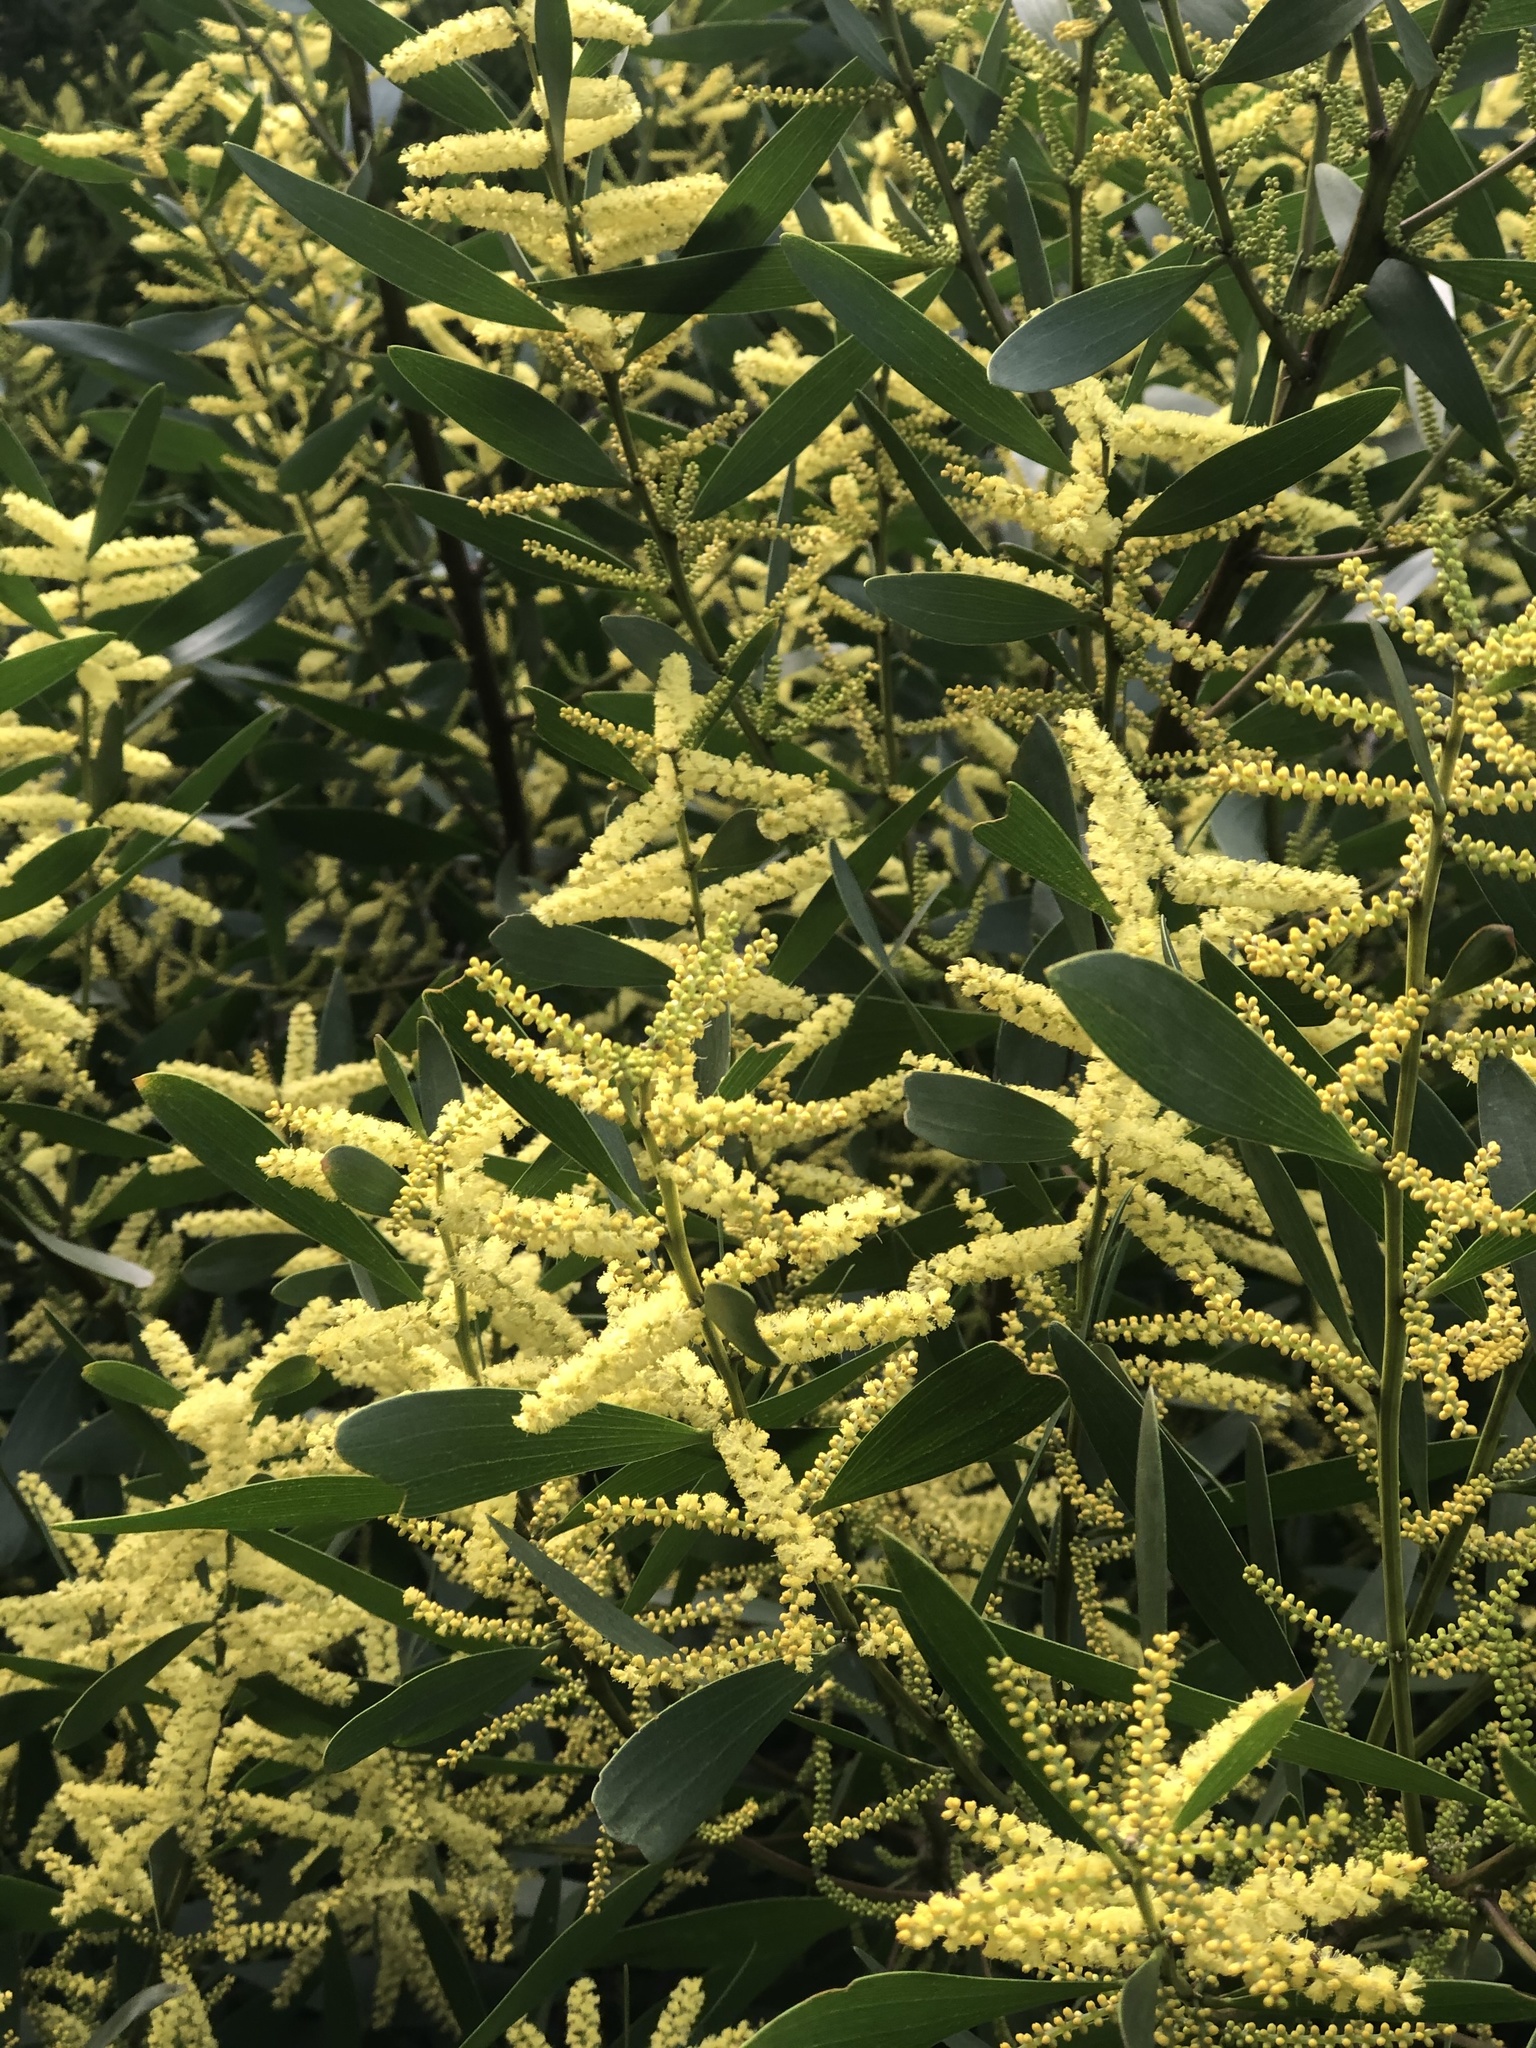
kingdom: Plantae
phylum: Tracheophyta
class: Magnoliopsida
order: Fabales
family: Fabaceae
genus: Acacia
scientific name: Acacia longifolia
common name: Sydney golden wattle
